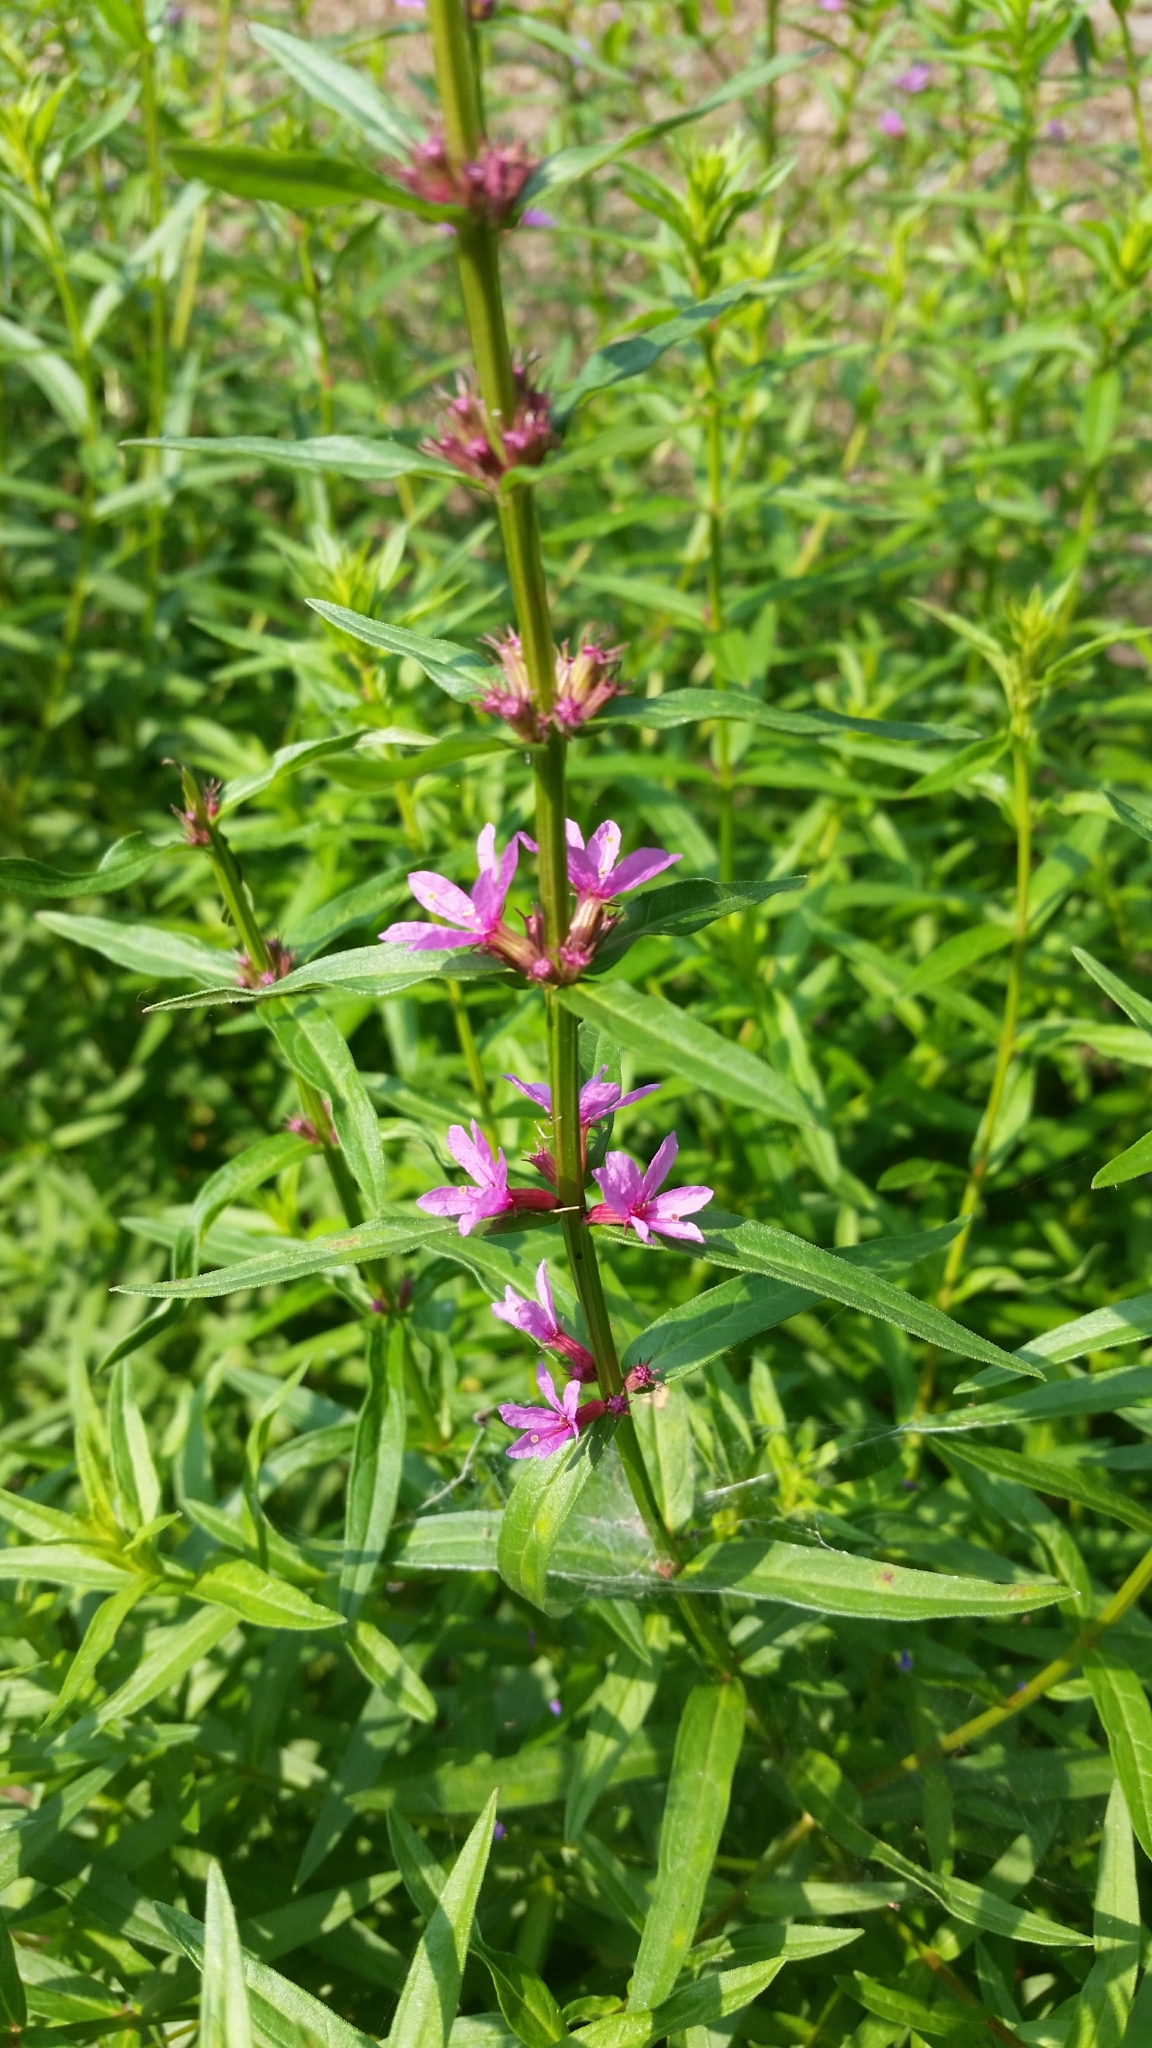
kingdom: Plantae
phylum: Tracheophyta
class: Magnoliopsida
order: Myrtales
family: Lythraceae
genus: Lythrum
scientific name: Lythrum salicaria
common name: Purple loosestrife
